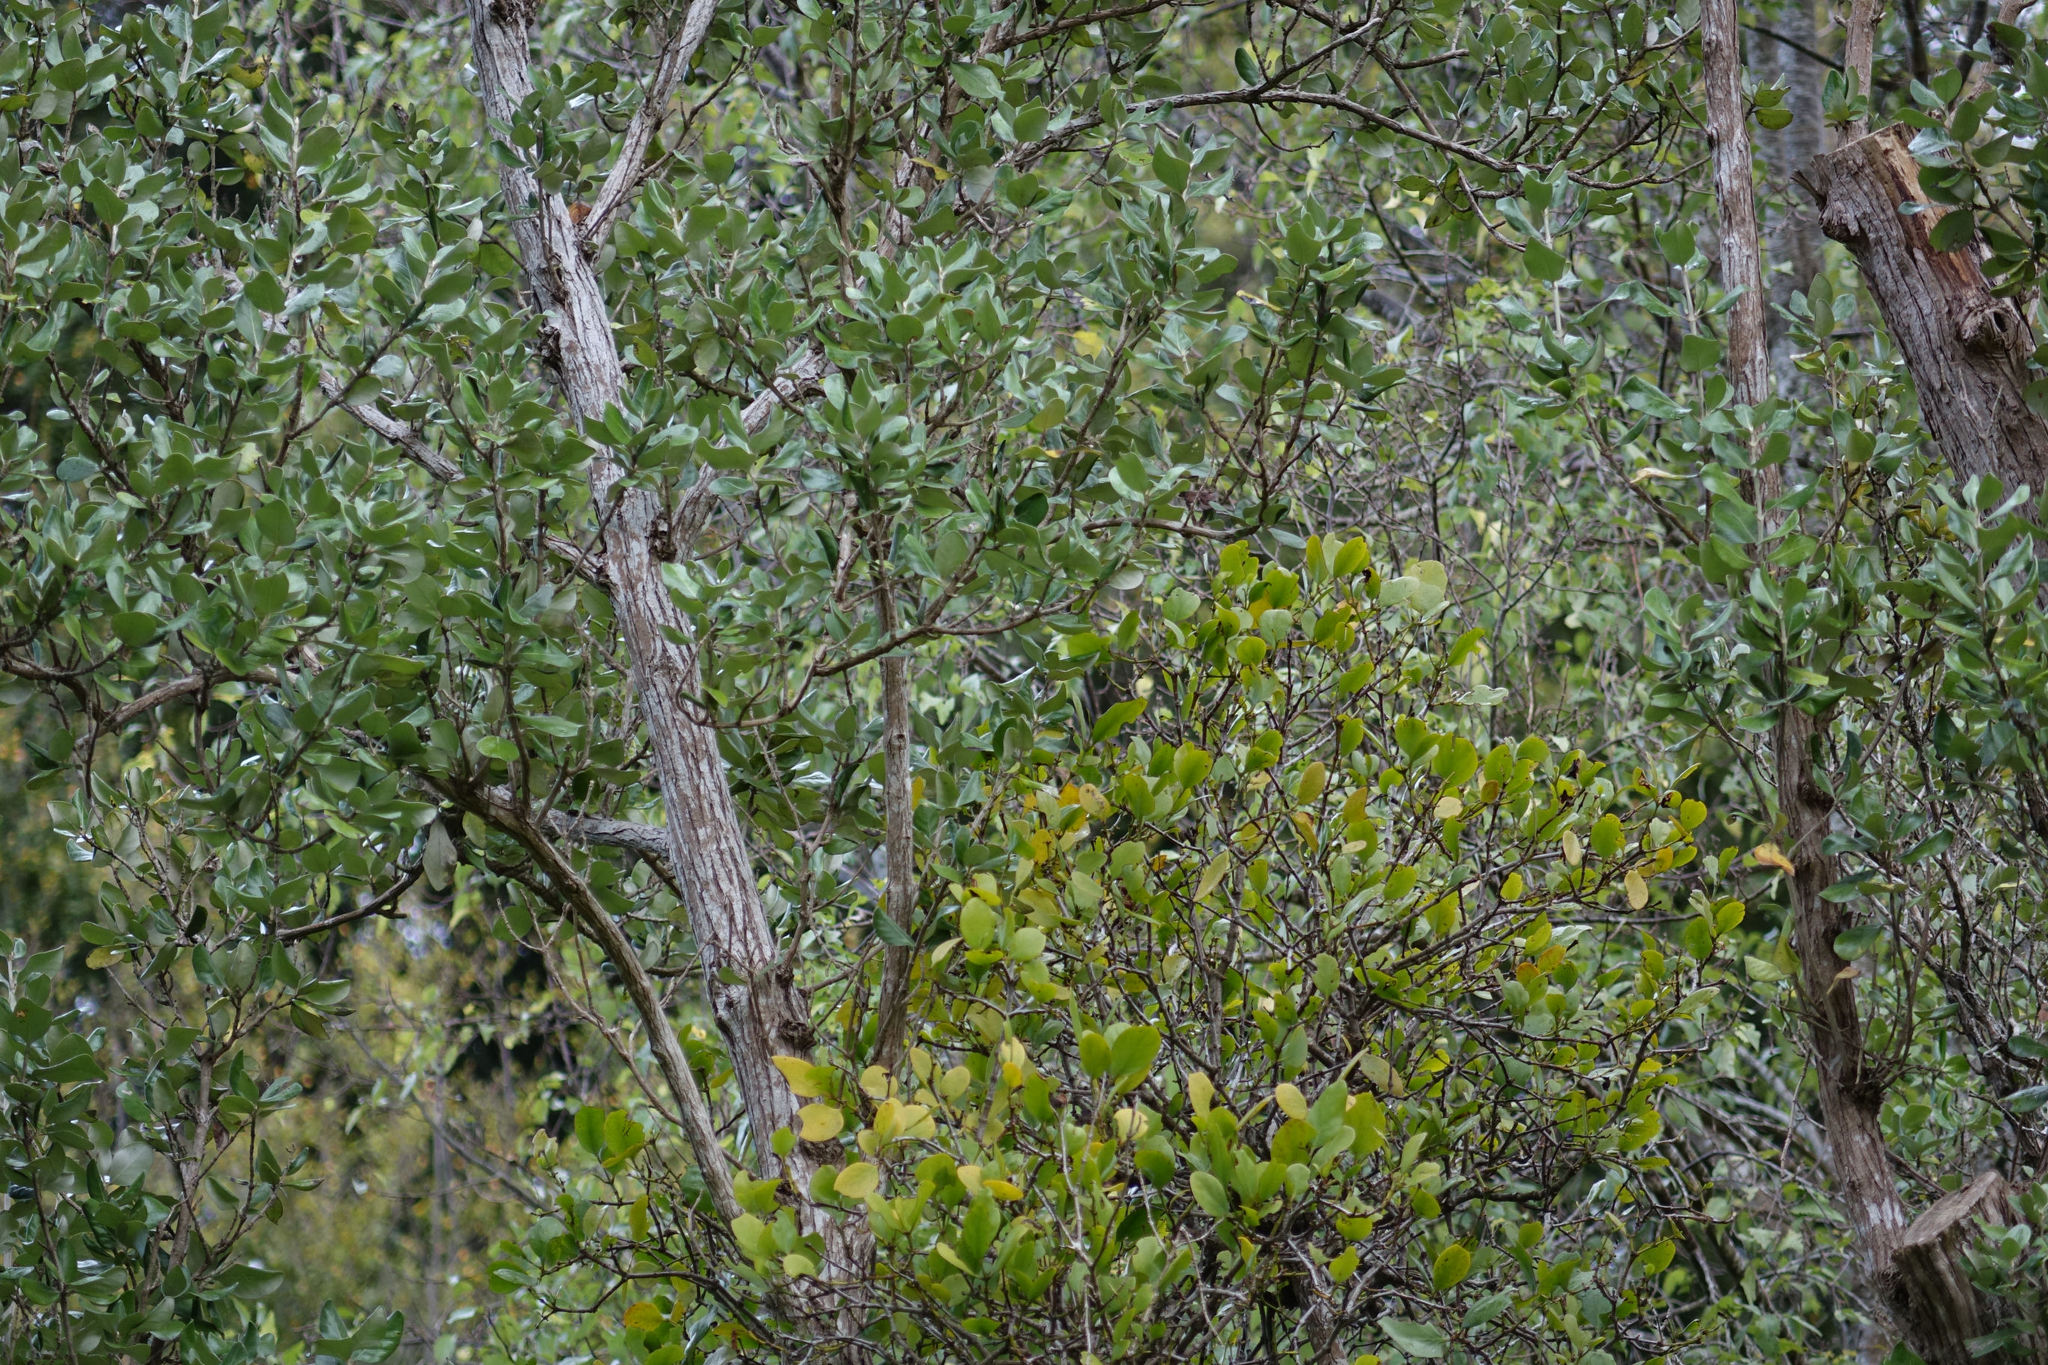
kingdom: Plantae
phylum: Tracheophyta
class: Magnoliopsida
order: Santalales
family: Loranthaceae
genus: Ileostylus
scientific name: Ileostylus micranthus
